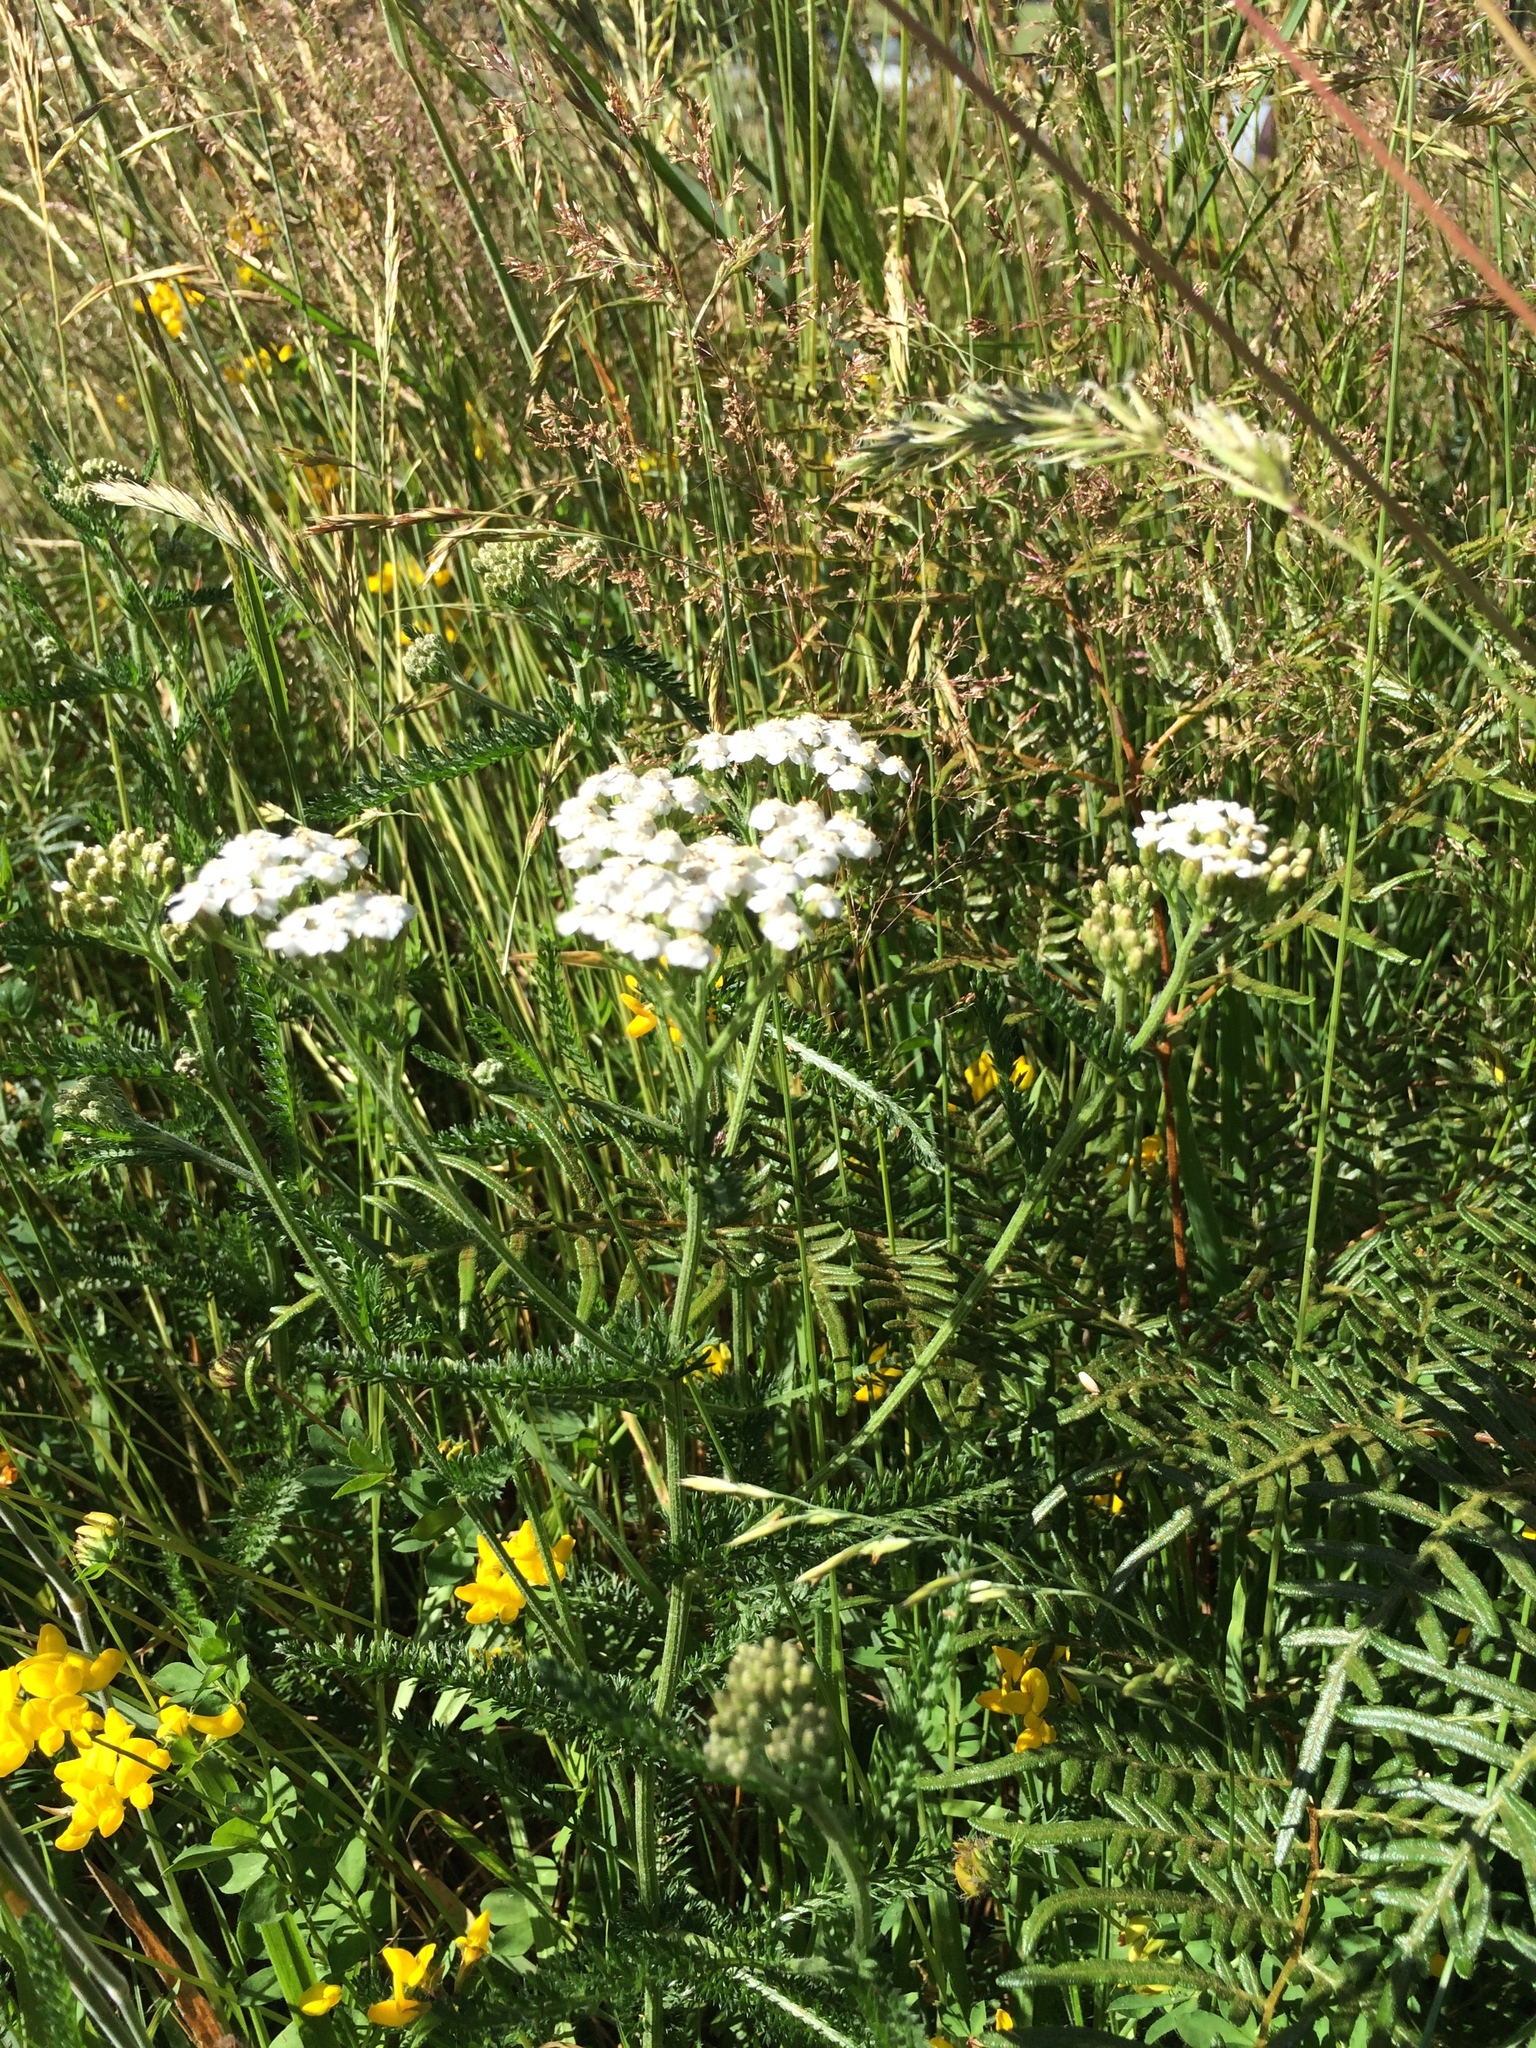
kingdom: Plantae
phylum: Tracheophyta
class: Magnoliopsida
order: Asterales
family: Asteraceae
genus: Achillea
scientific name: Achillea millefolium
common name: Yarrow
